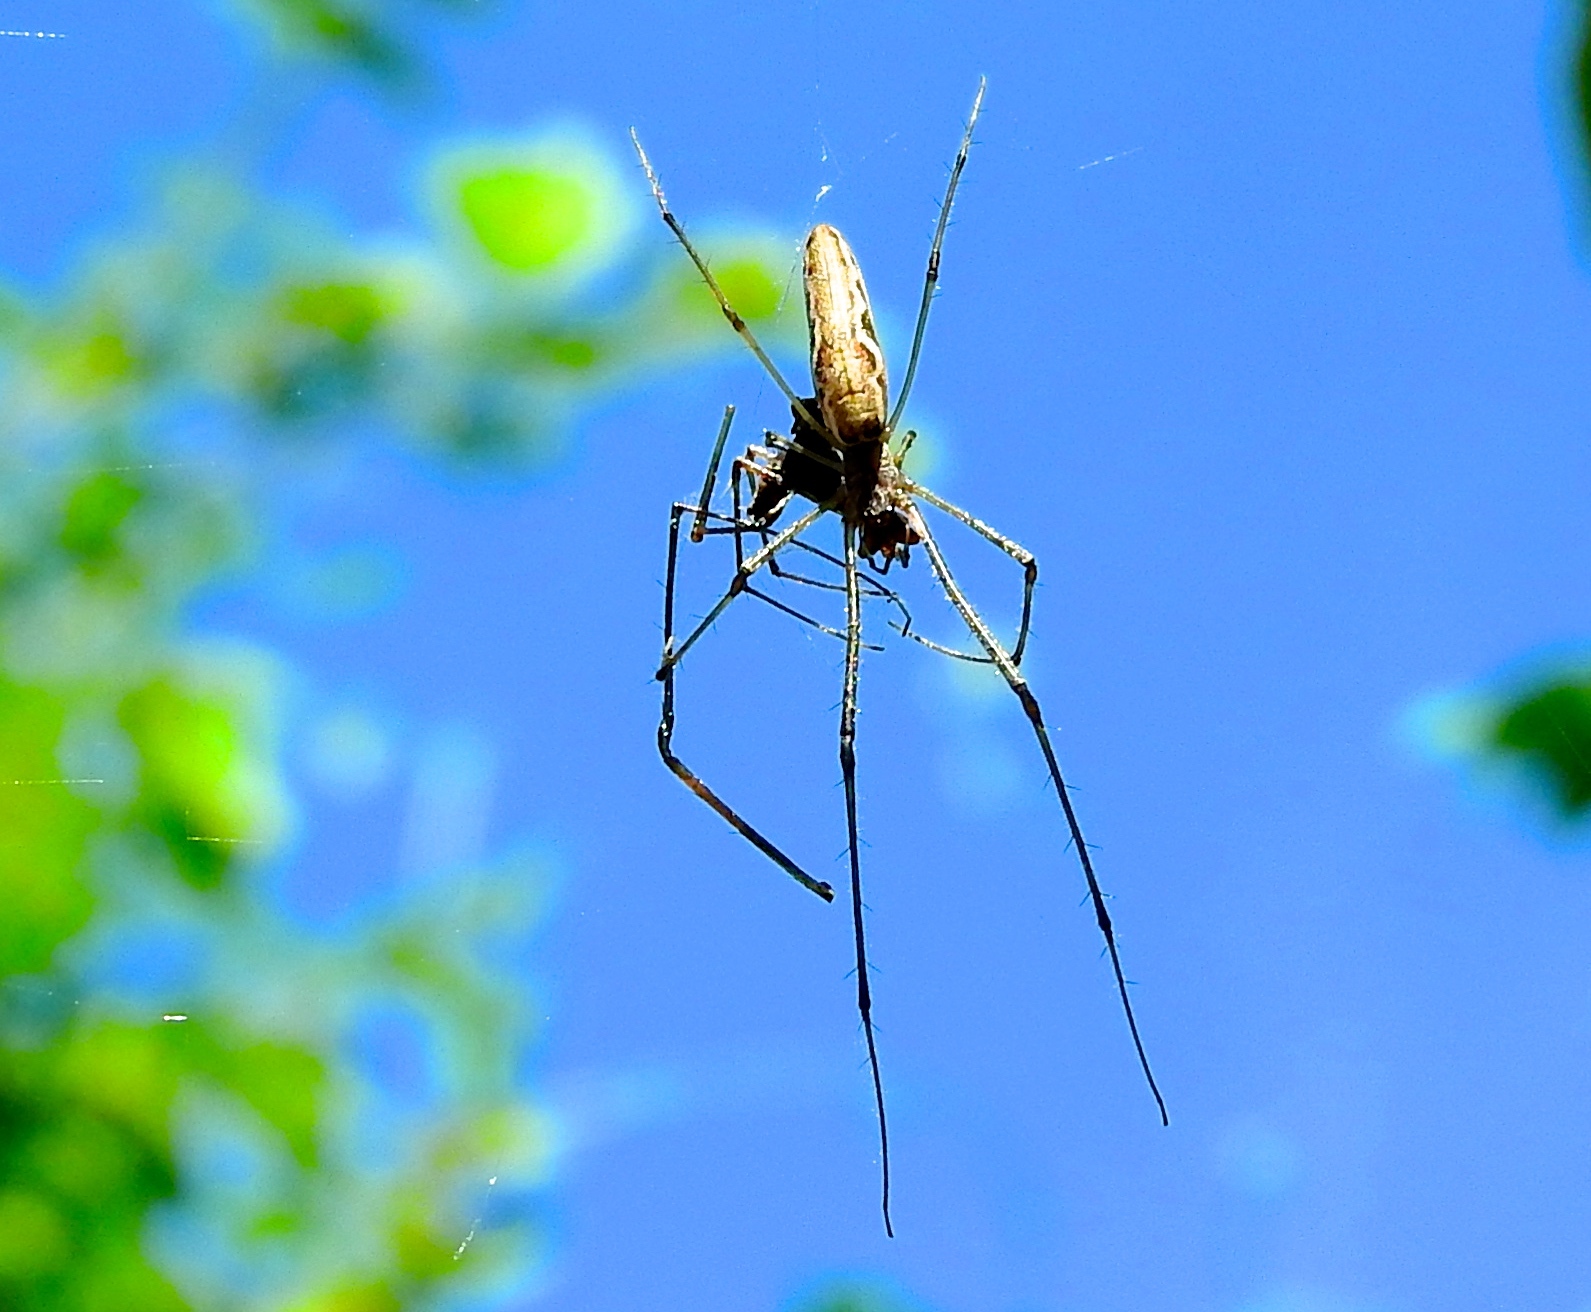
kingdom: Animalia
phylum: Arthropoda
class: Arachnida
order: Araneae
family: Tetragnathidae
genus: Tetragnatha
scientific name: Tetragnatha
